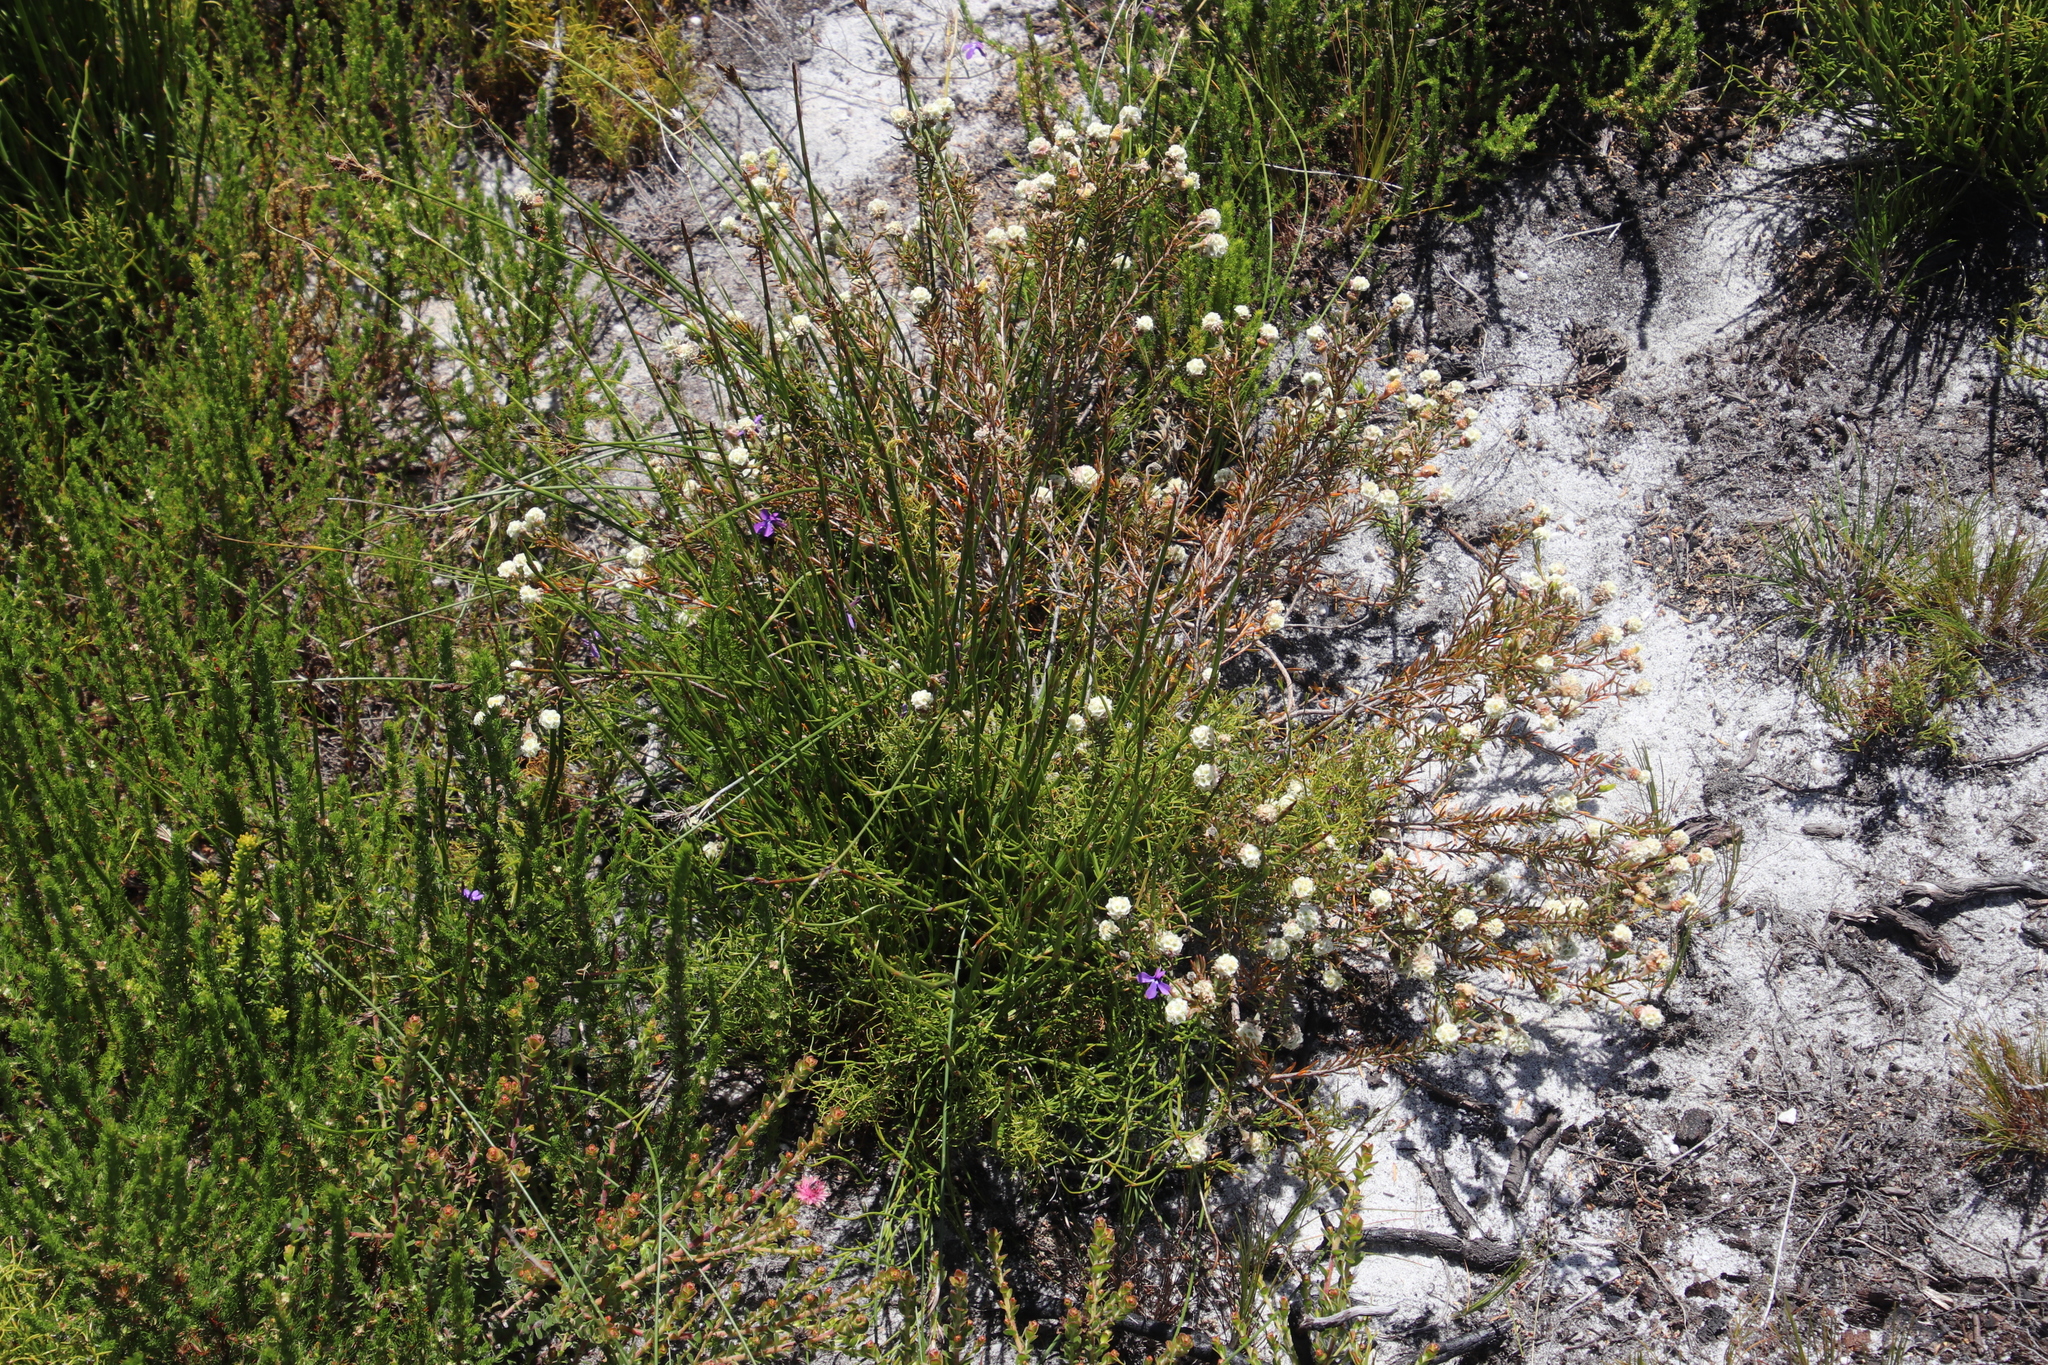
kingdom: Plantae
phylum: Tracheophyta
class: Magnoliopsida
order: Malvales
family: Thymelaeaceae
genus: Lachnaea
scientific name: Lachnaea densiflora
